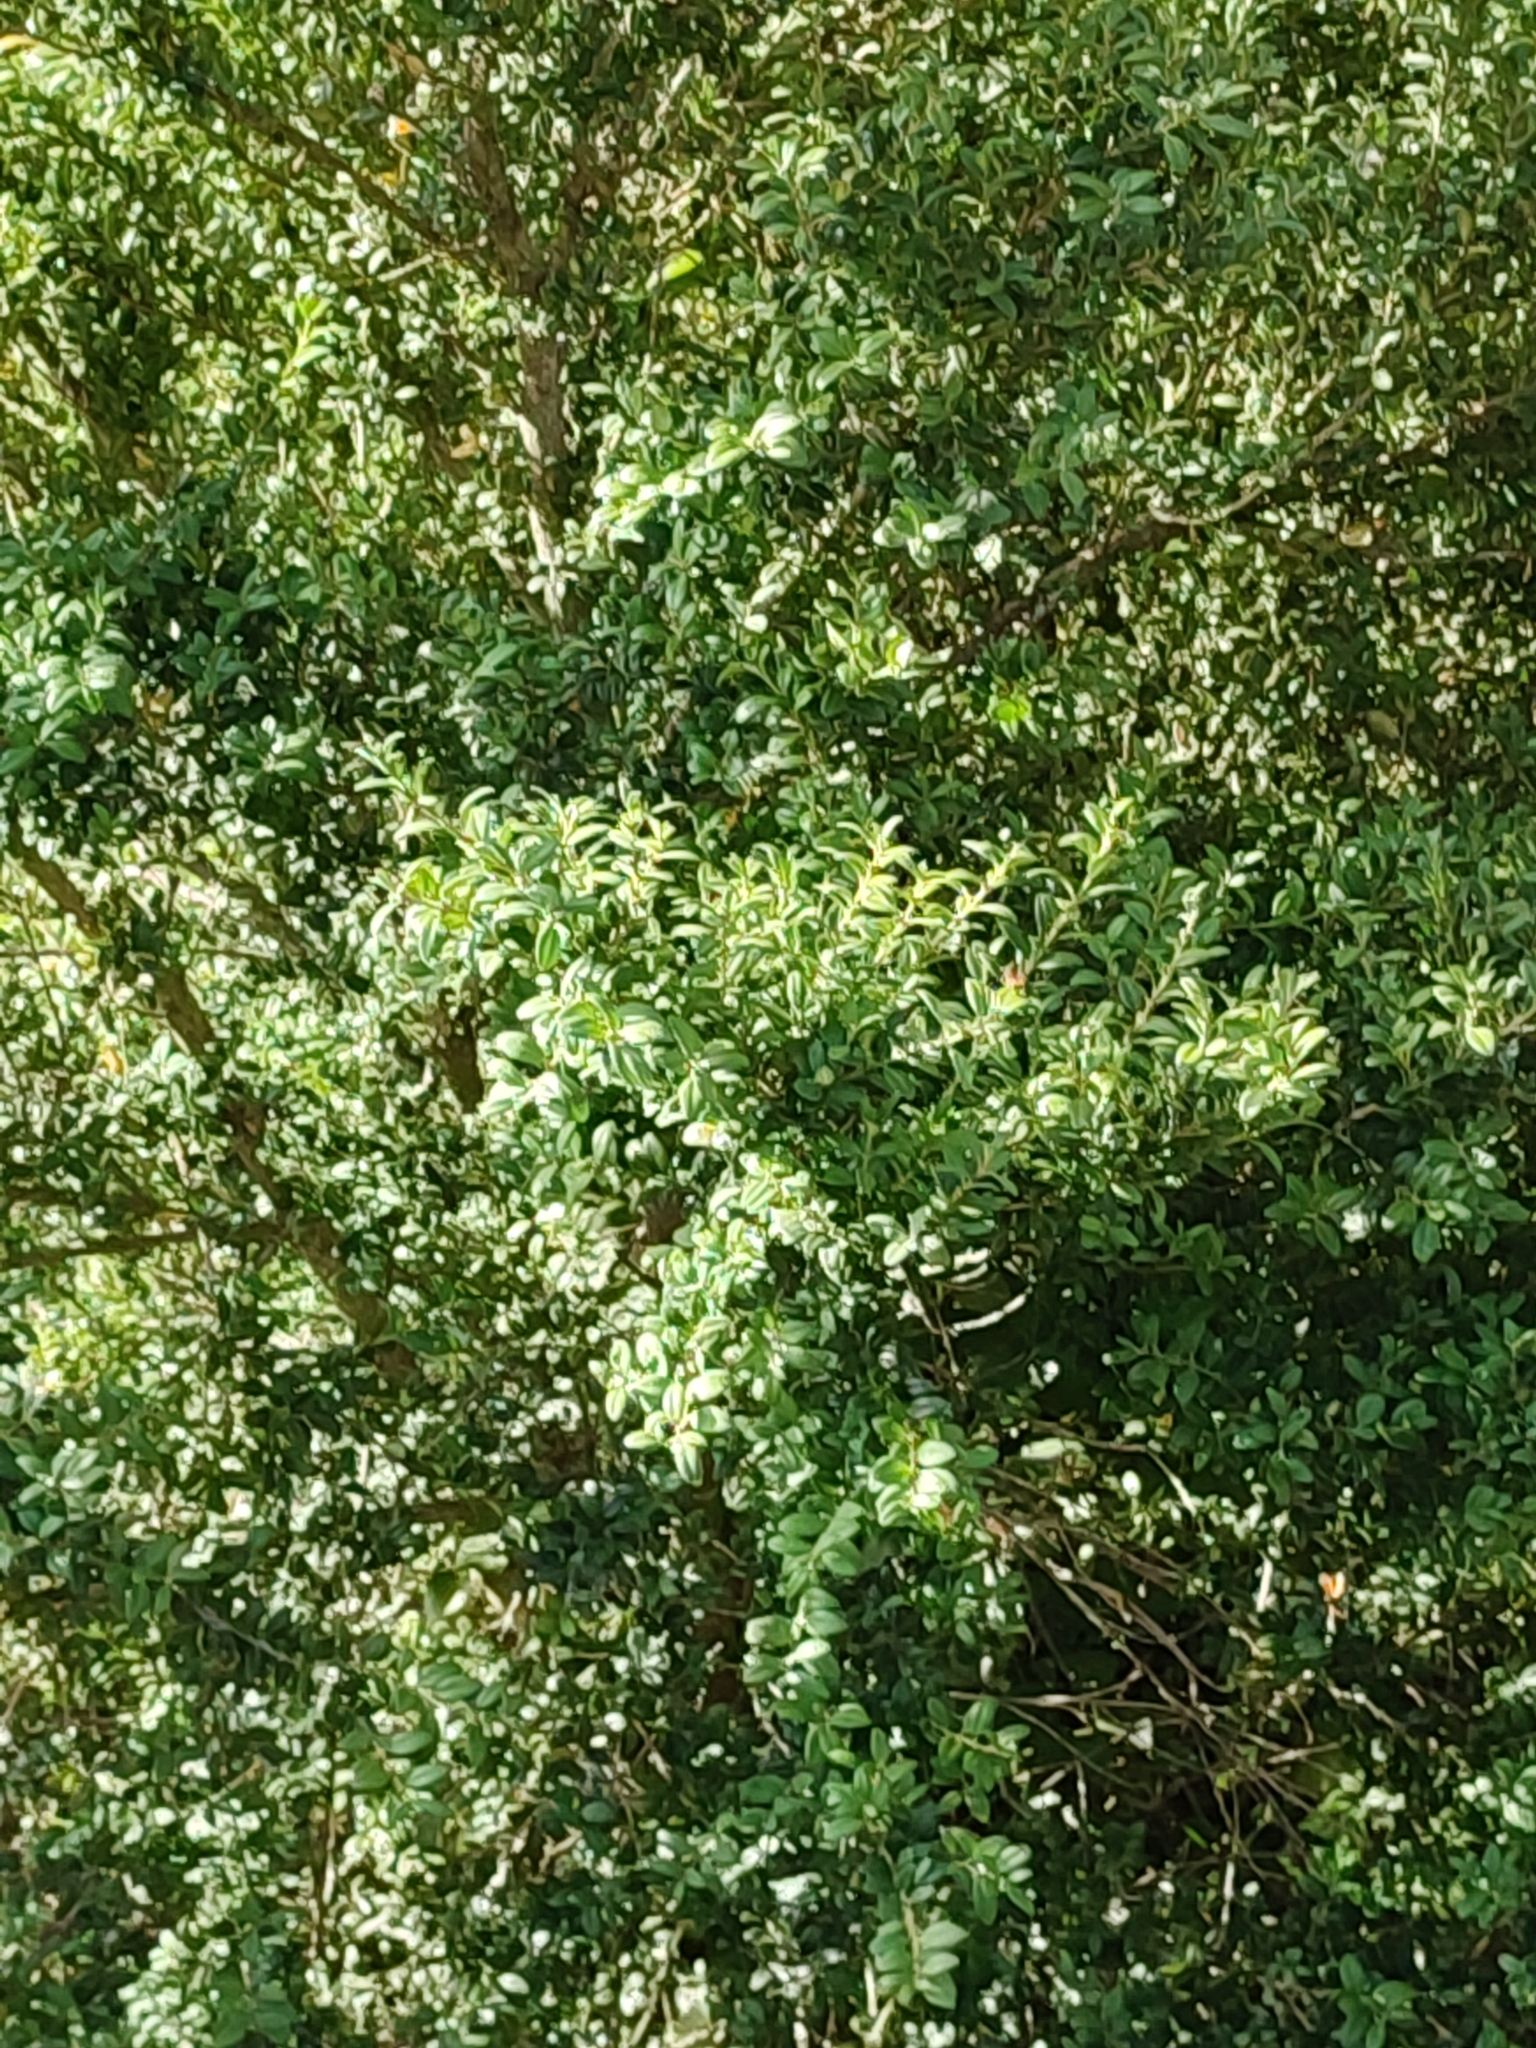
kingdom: Plantae
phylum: Tracheophyta
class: Magnoliopsida
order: Buxales
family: Buxaceae
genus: Buxus
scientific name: Buxus sempervirens
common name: Box
